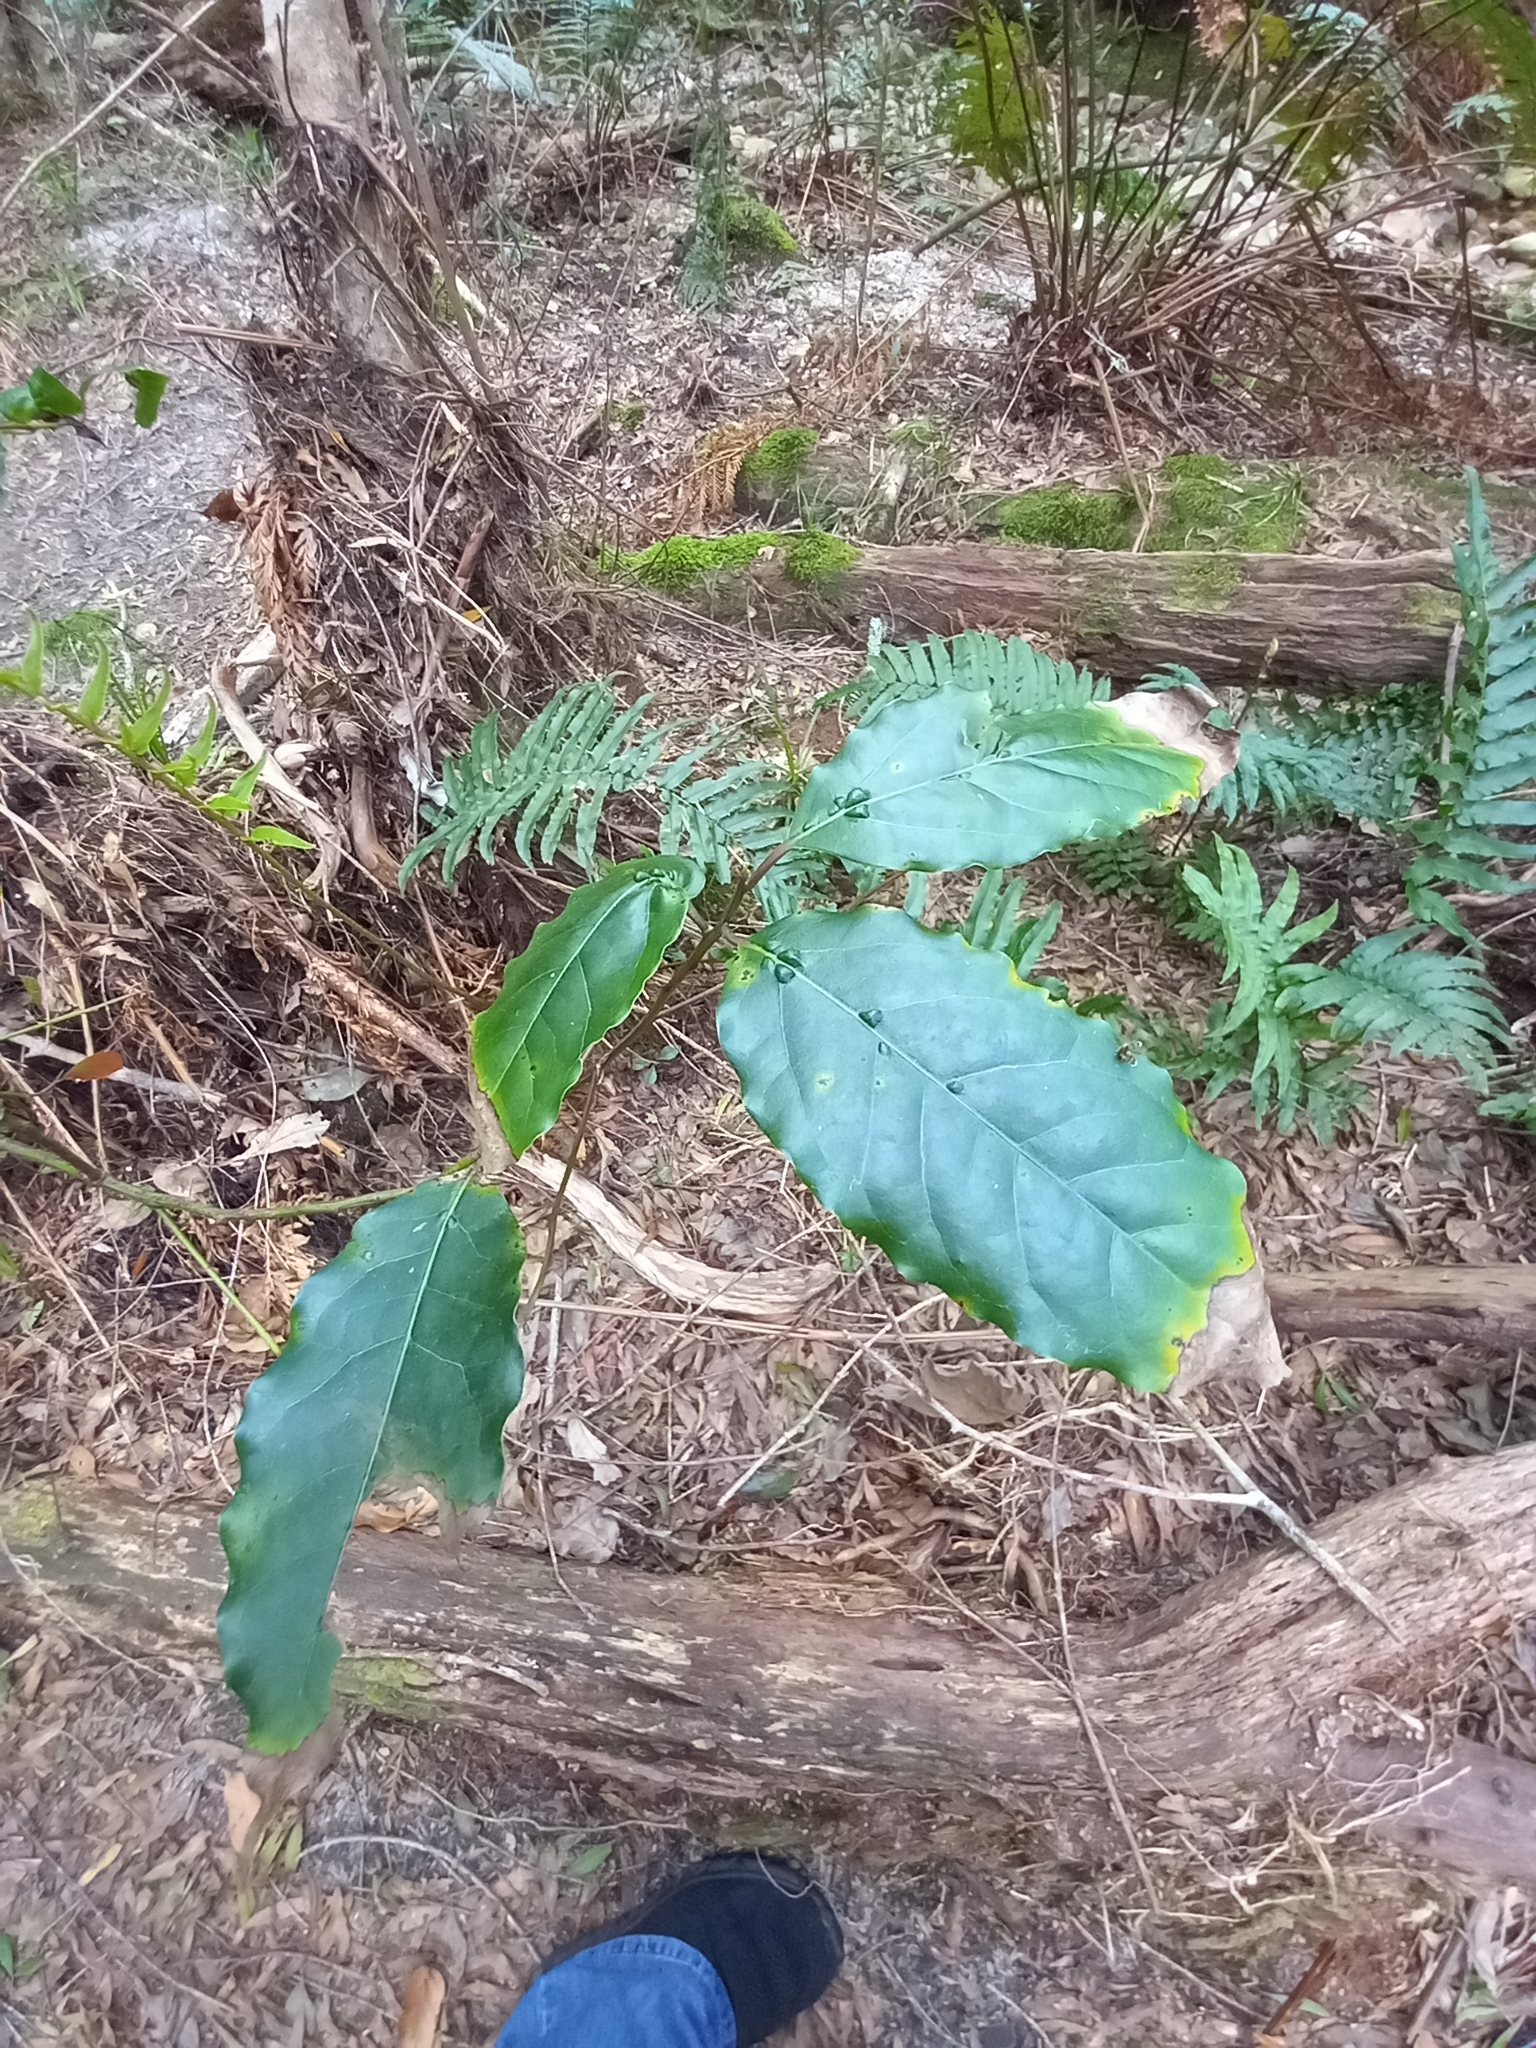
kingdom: Plantae
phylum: Tracheophyta
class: Magnoliopsida
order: Laurales
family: Lauraceae
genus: Ocotea
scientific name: Ocotea bullata
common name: Black stinkwood
